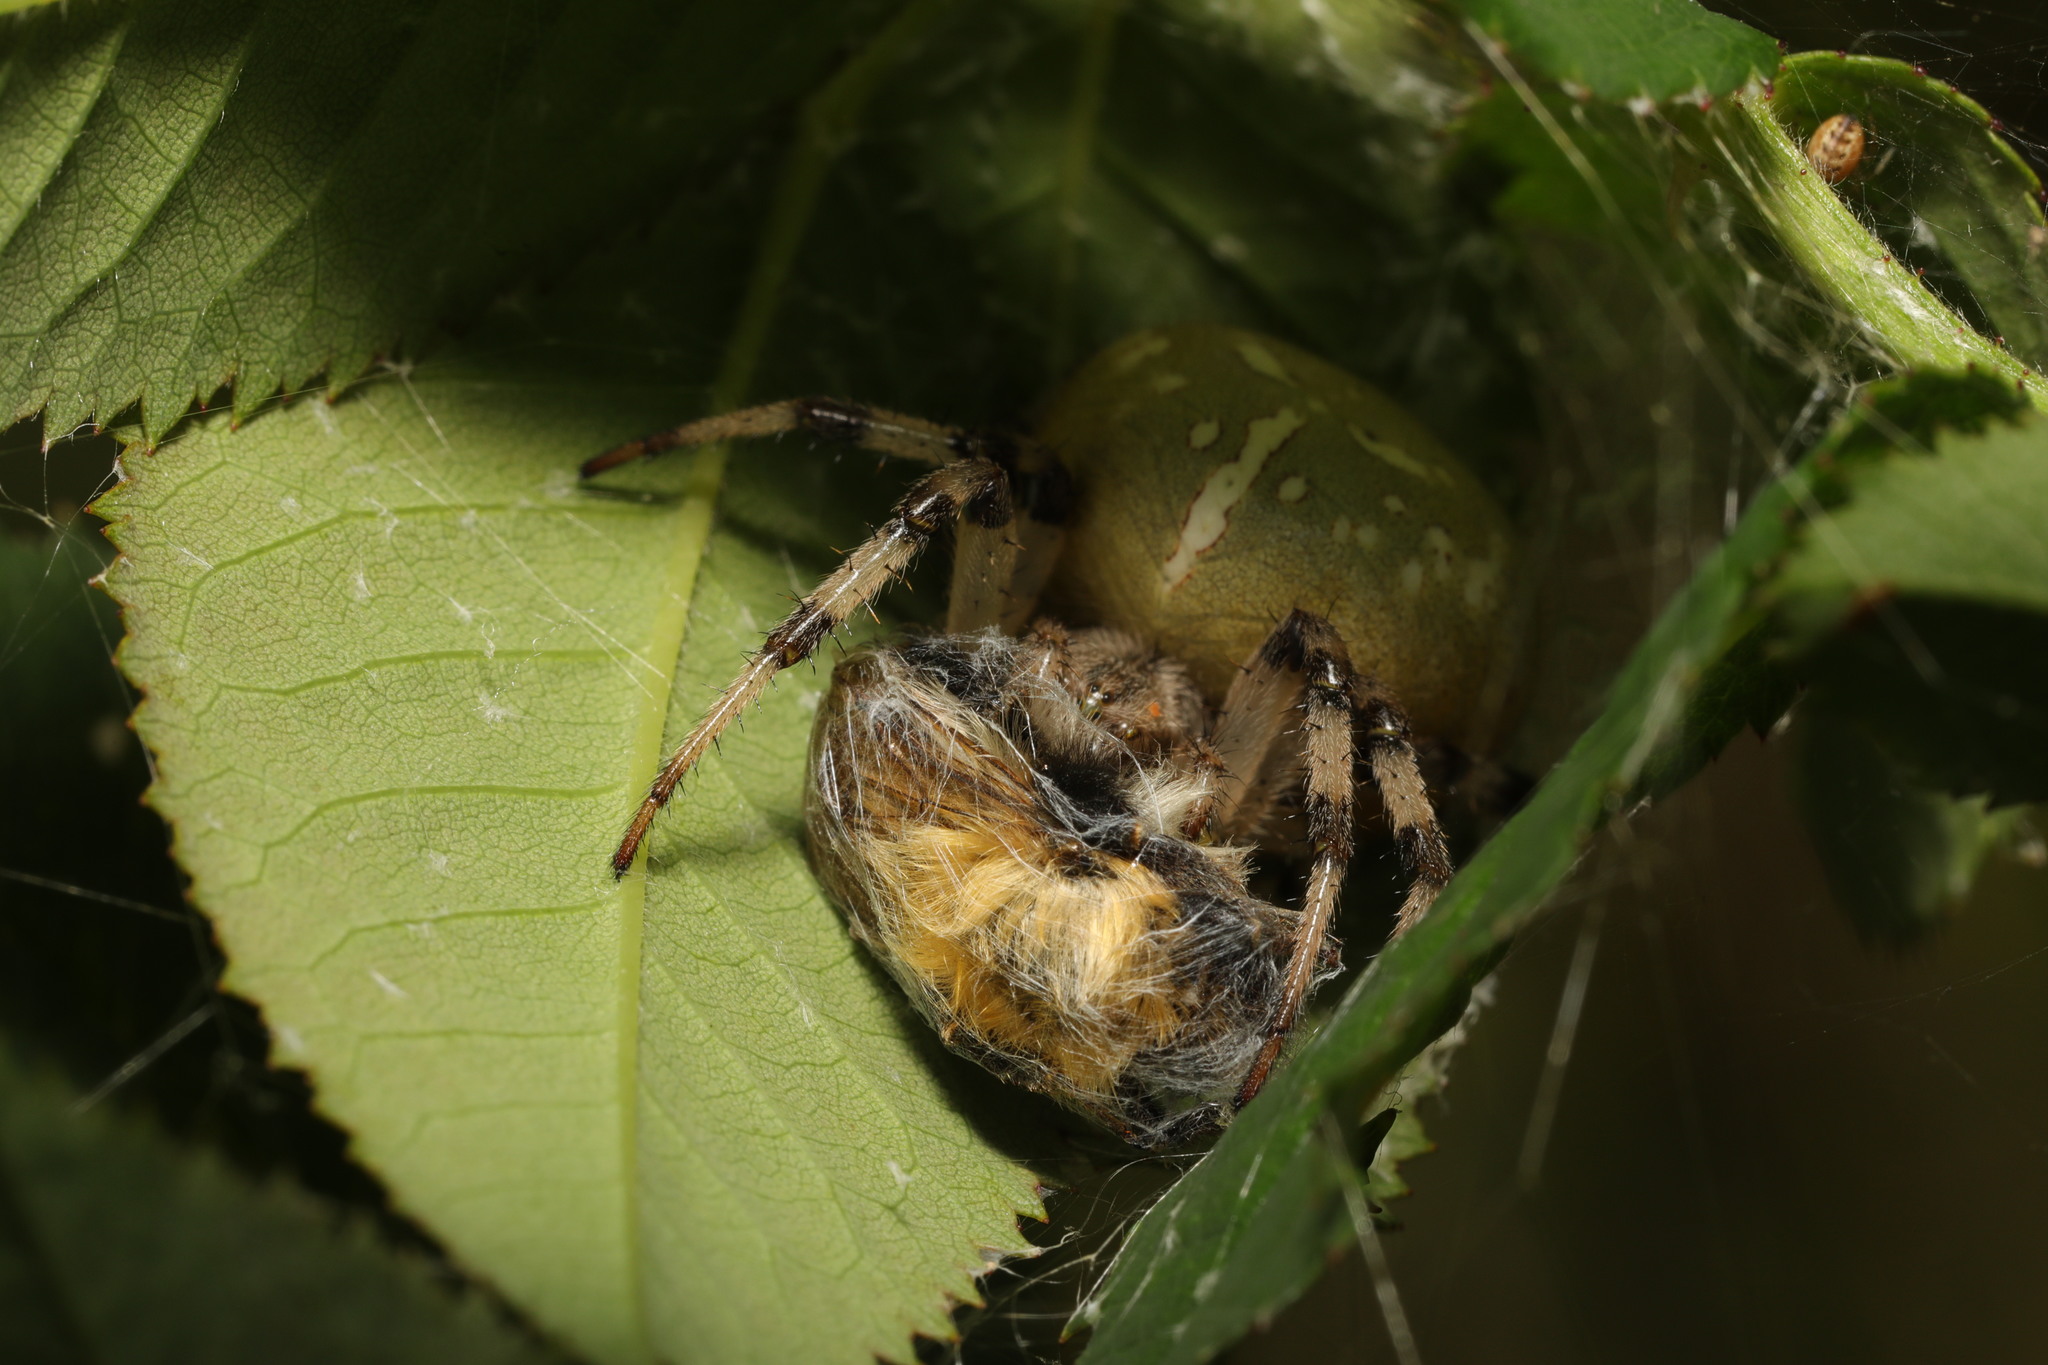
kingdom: Animalia
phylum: Arthropoda
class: Arachnida
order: Araneae
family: Araneidae
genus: Araneus
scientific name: Araneus quadratus
